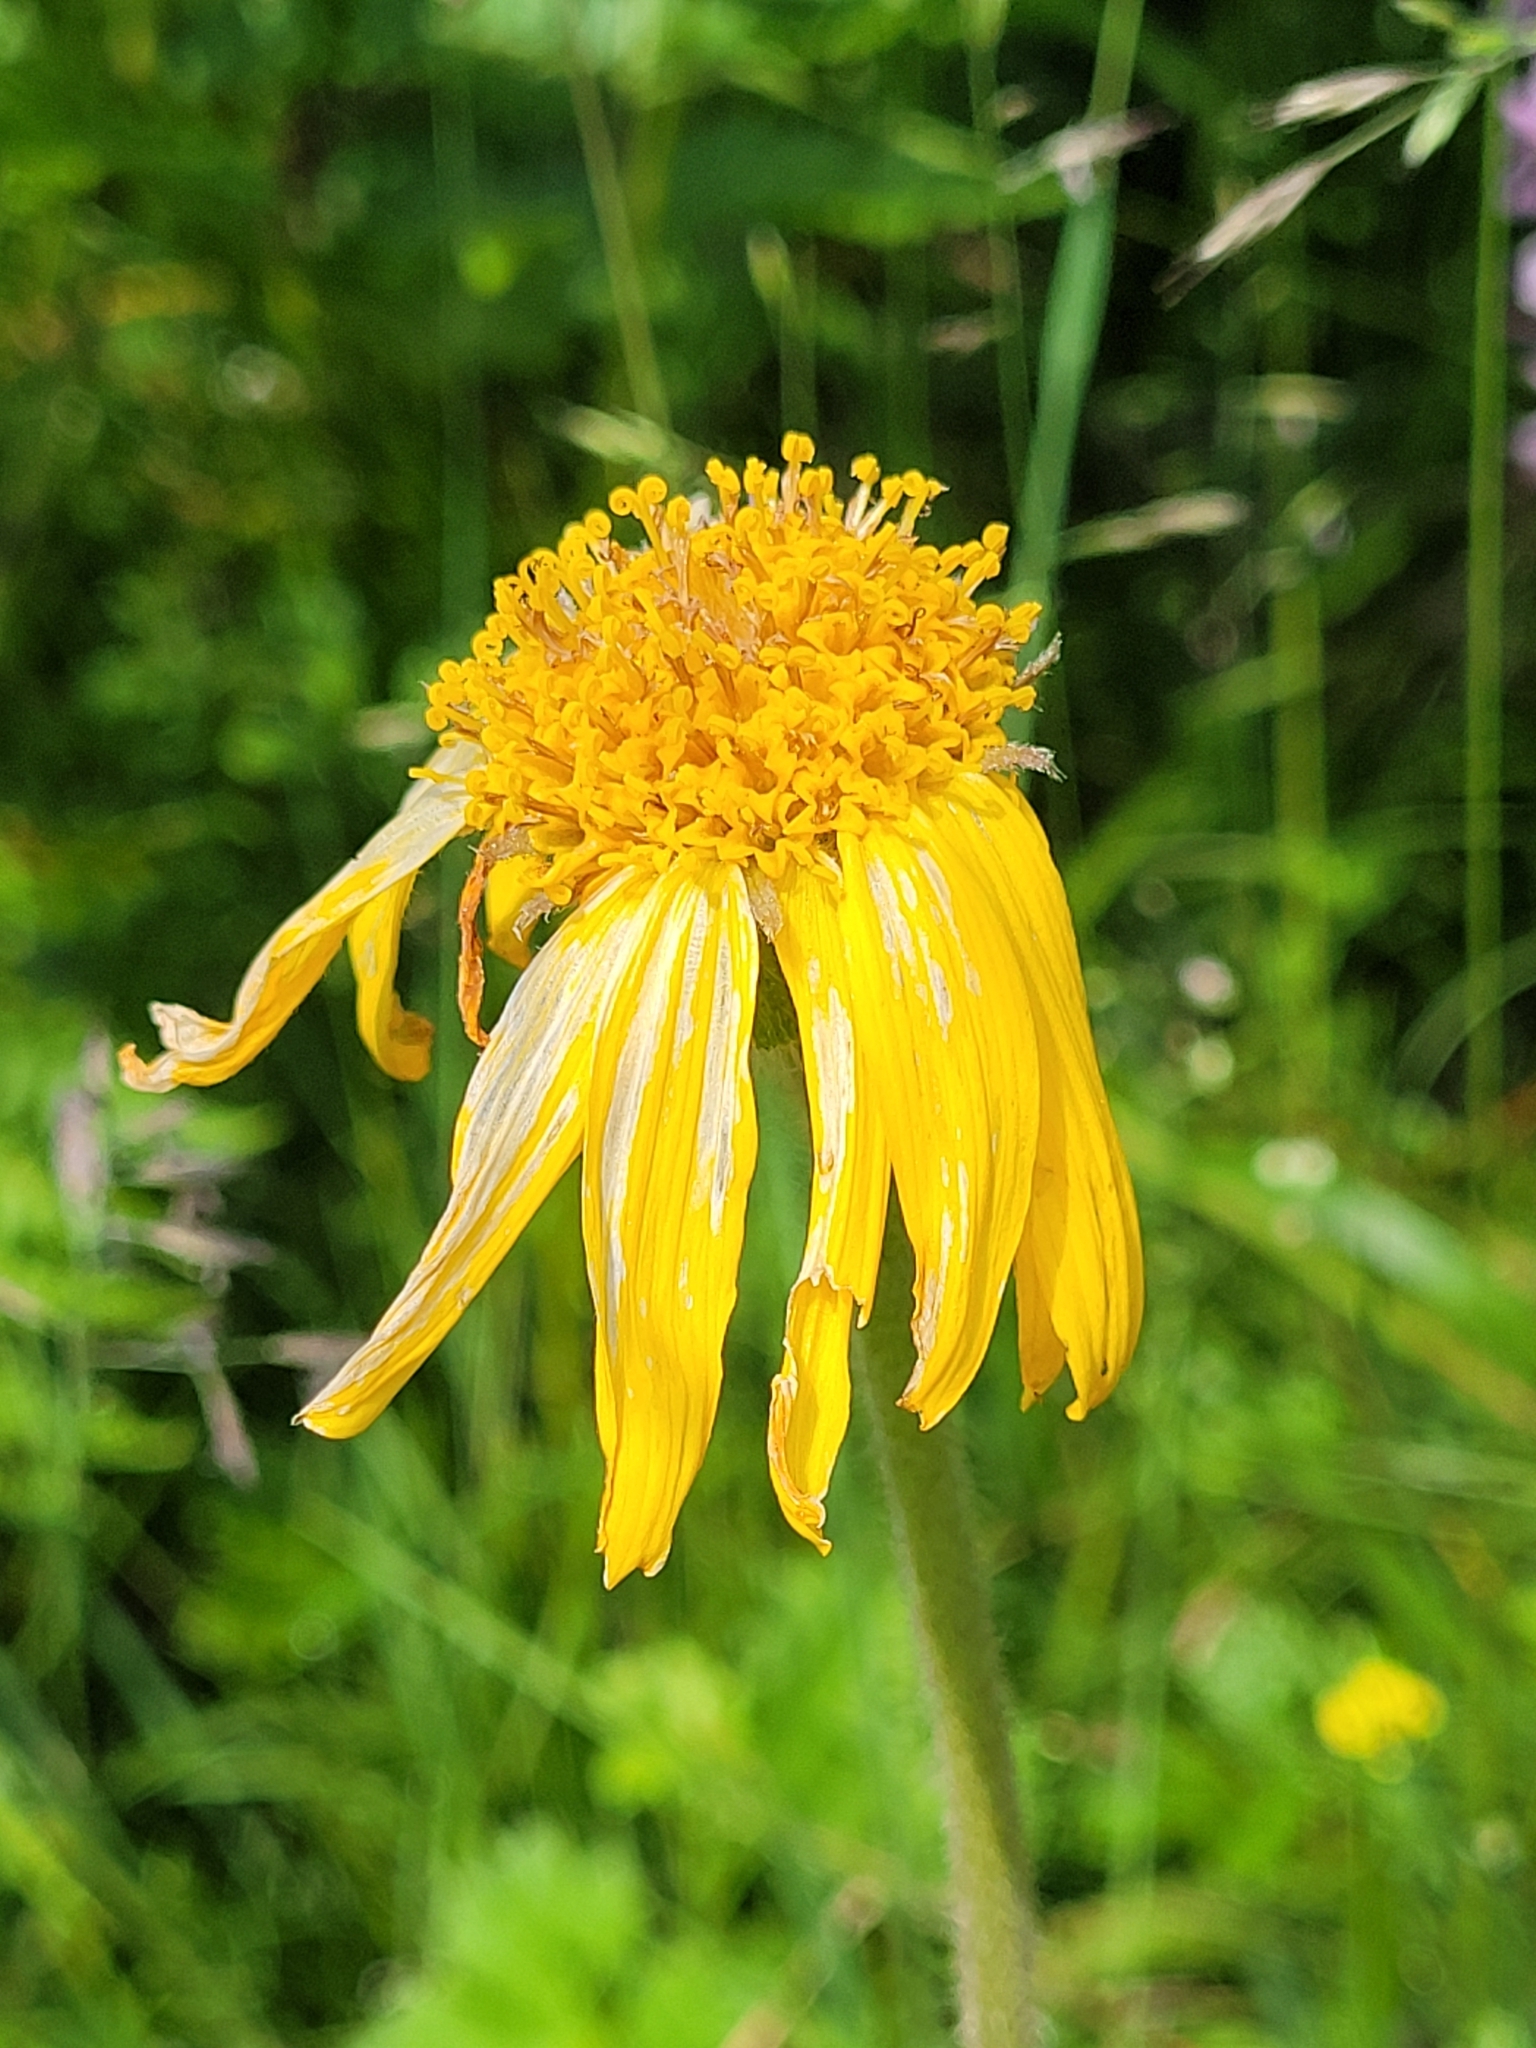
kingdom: Plantae
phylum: Tracheophyta
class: Magnoliopsida
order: Asterales
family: Asteraceae
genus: Arnica
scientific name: Arnica montana
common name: Leopard's bane
